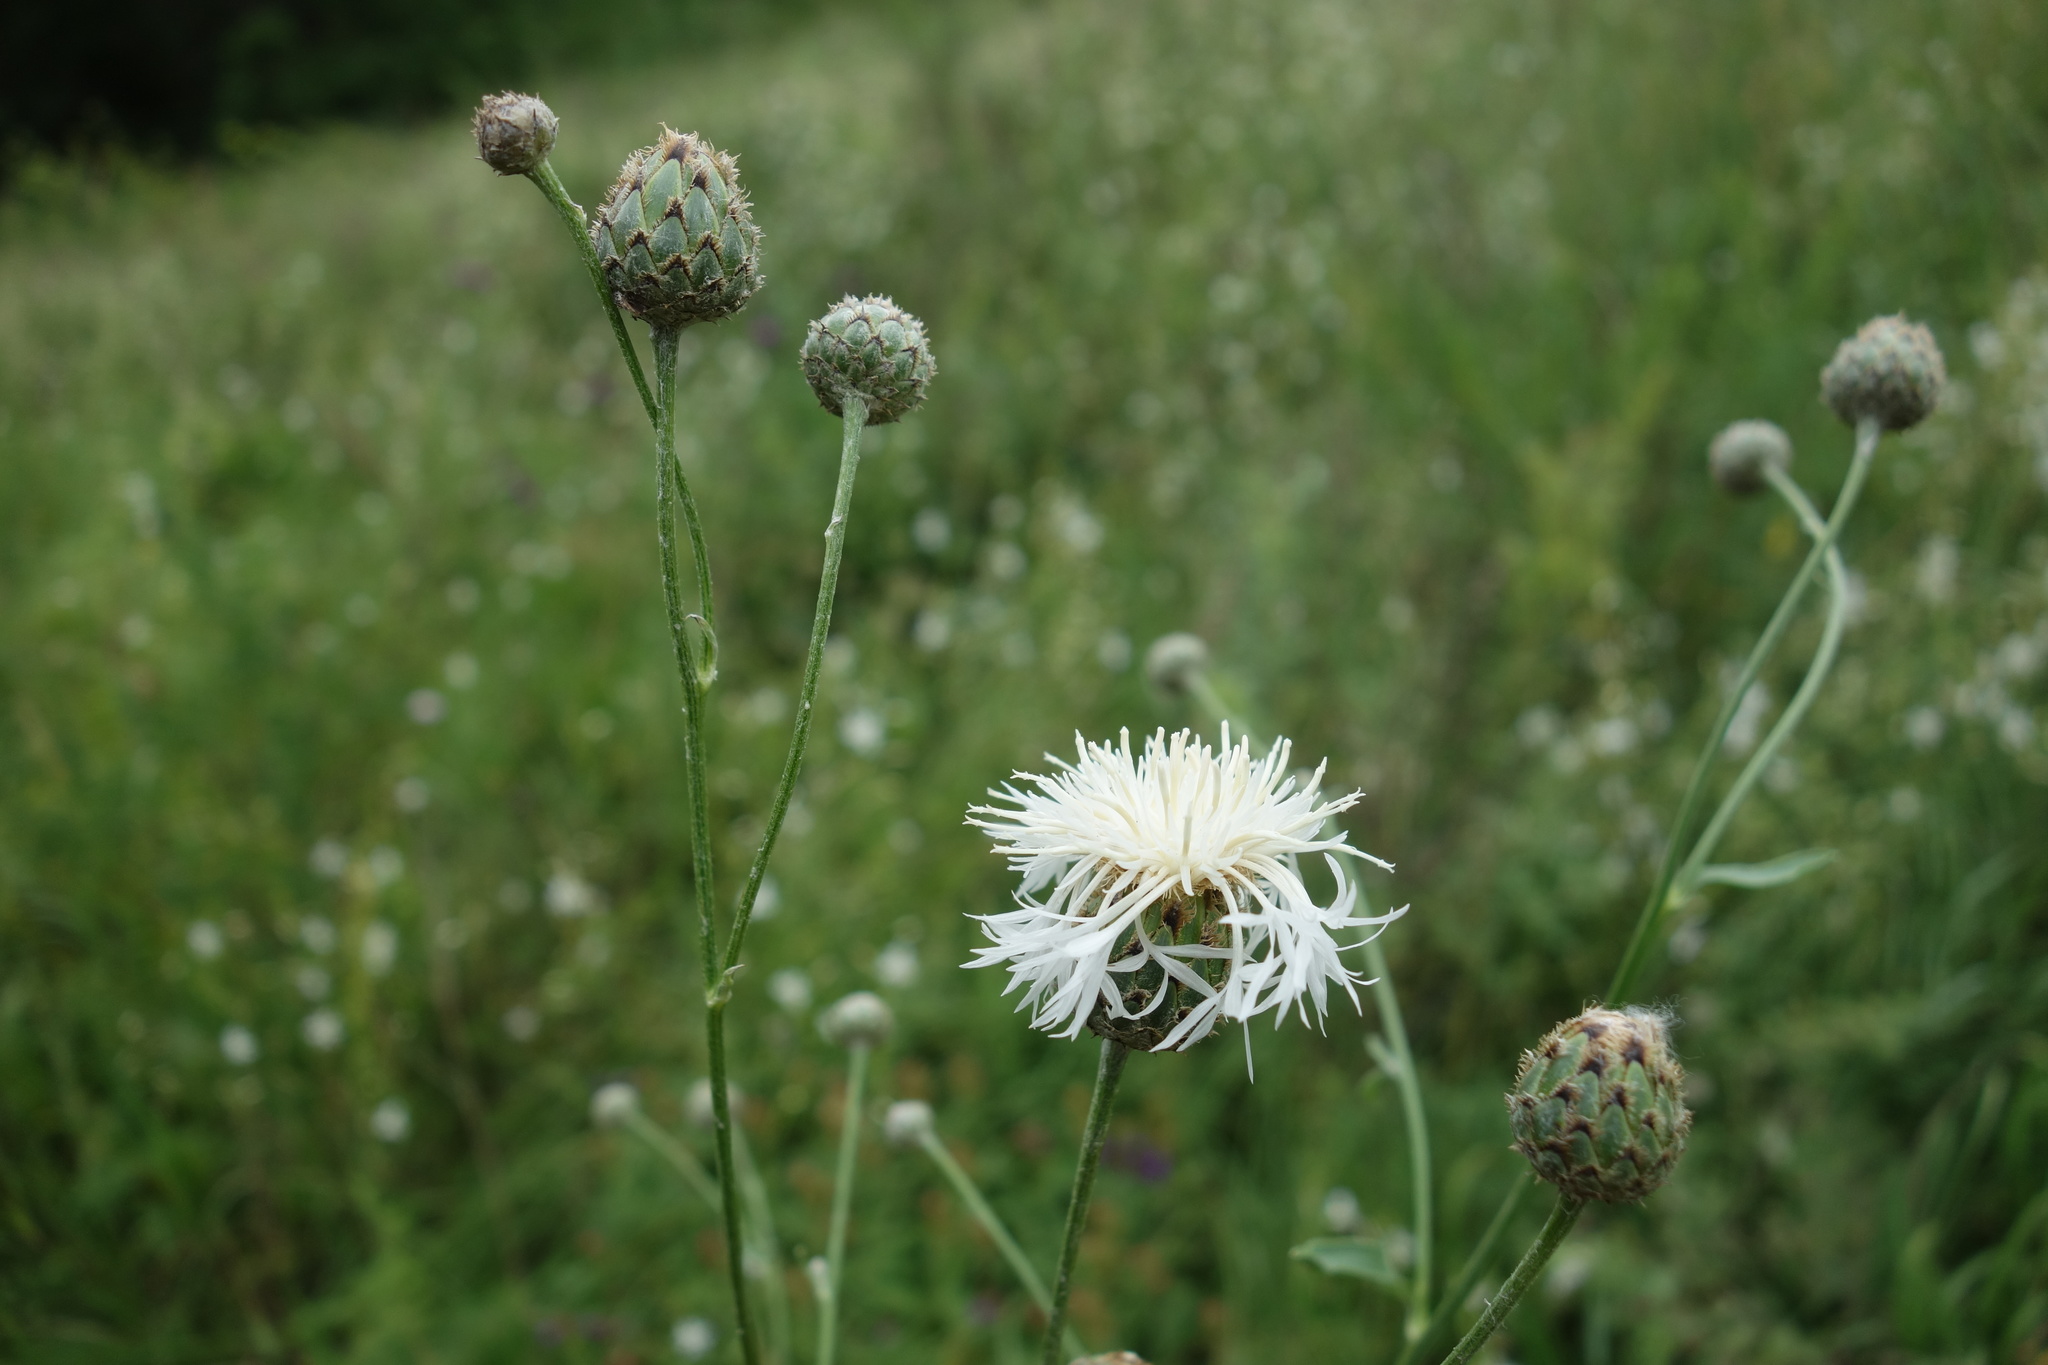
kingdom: Plantae
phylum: Tracheophyta
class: Magnoliopsida
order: Asterales
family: Asteraceae
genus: Centaurea
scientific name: Centaurea scabiosa
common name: Greater knapweed
